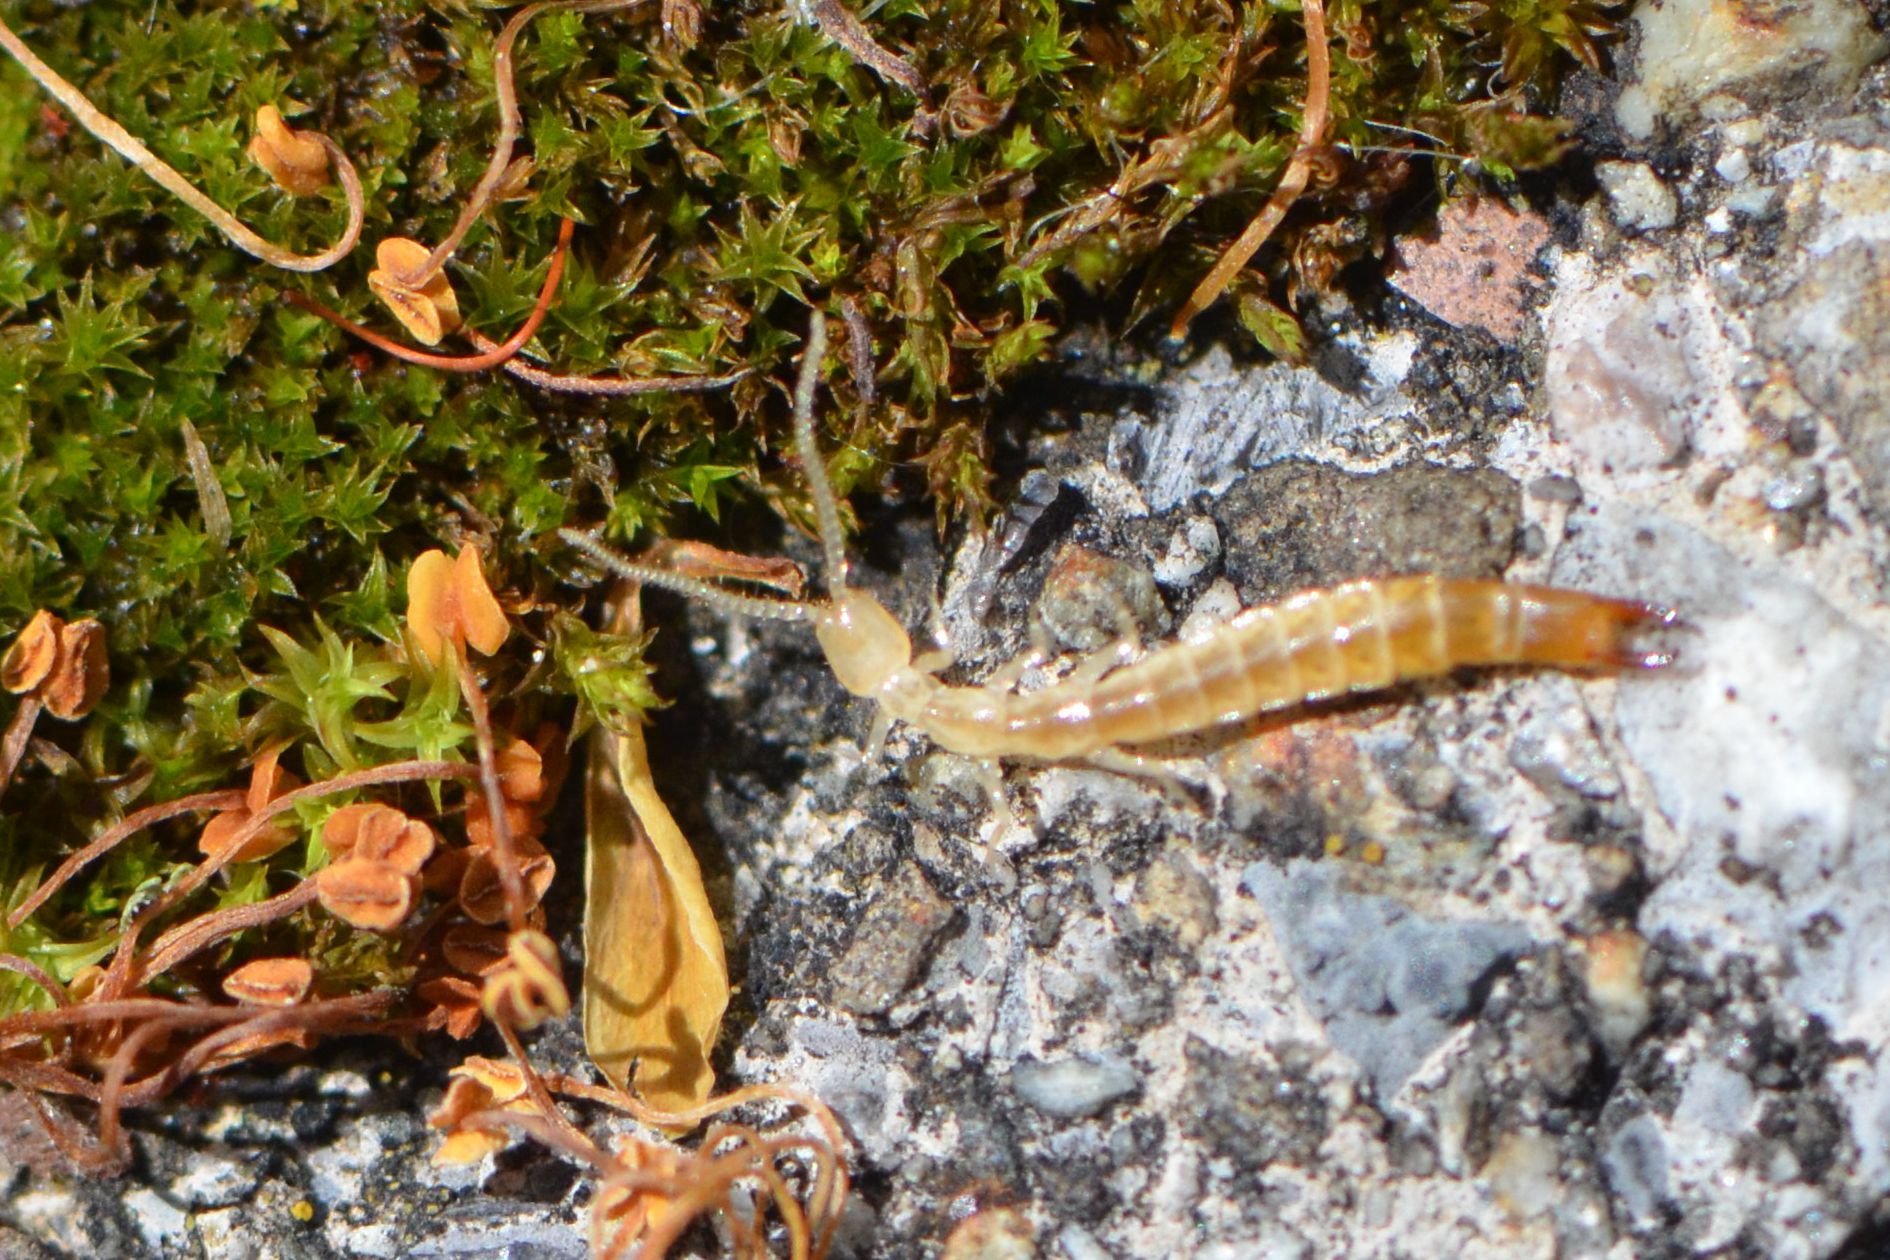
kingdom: Animalia
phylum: Arthropoda
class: Diplura
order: Diplura
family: Japygidae
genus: Dipljapyx
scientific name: Dipljapyx humberti
